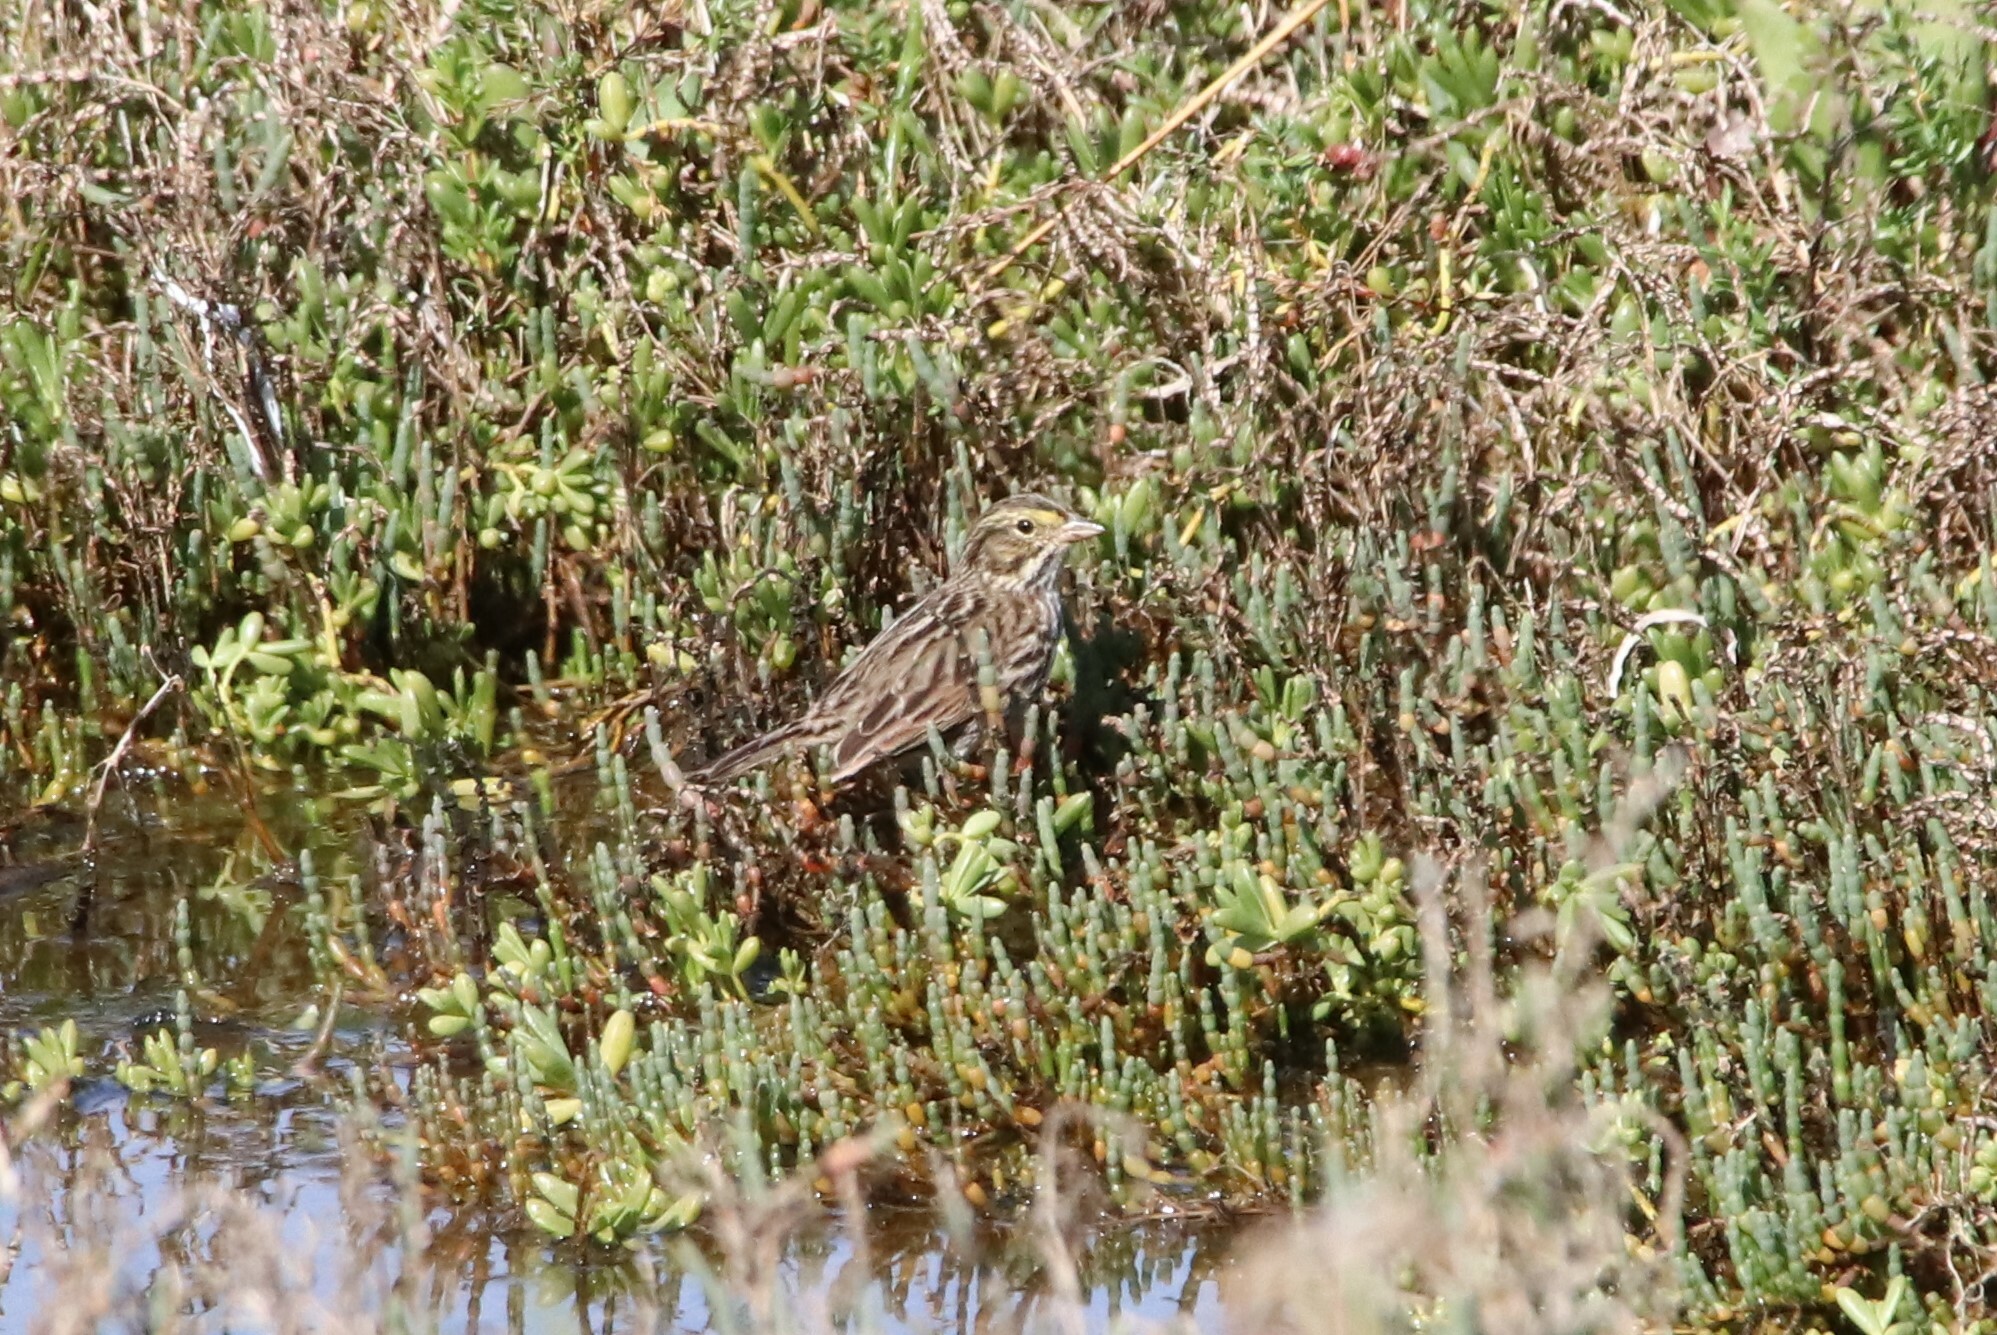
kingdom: Animalia
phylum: Chordata
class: Aves
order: Passeriformes
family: Passerellidae
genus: Passerculus
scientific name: Passerculus sandwichensis
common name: Savannah sparrow
